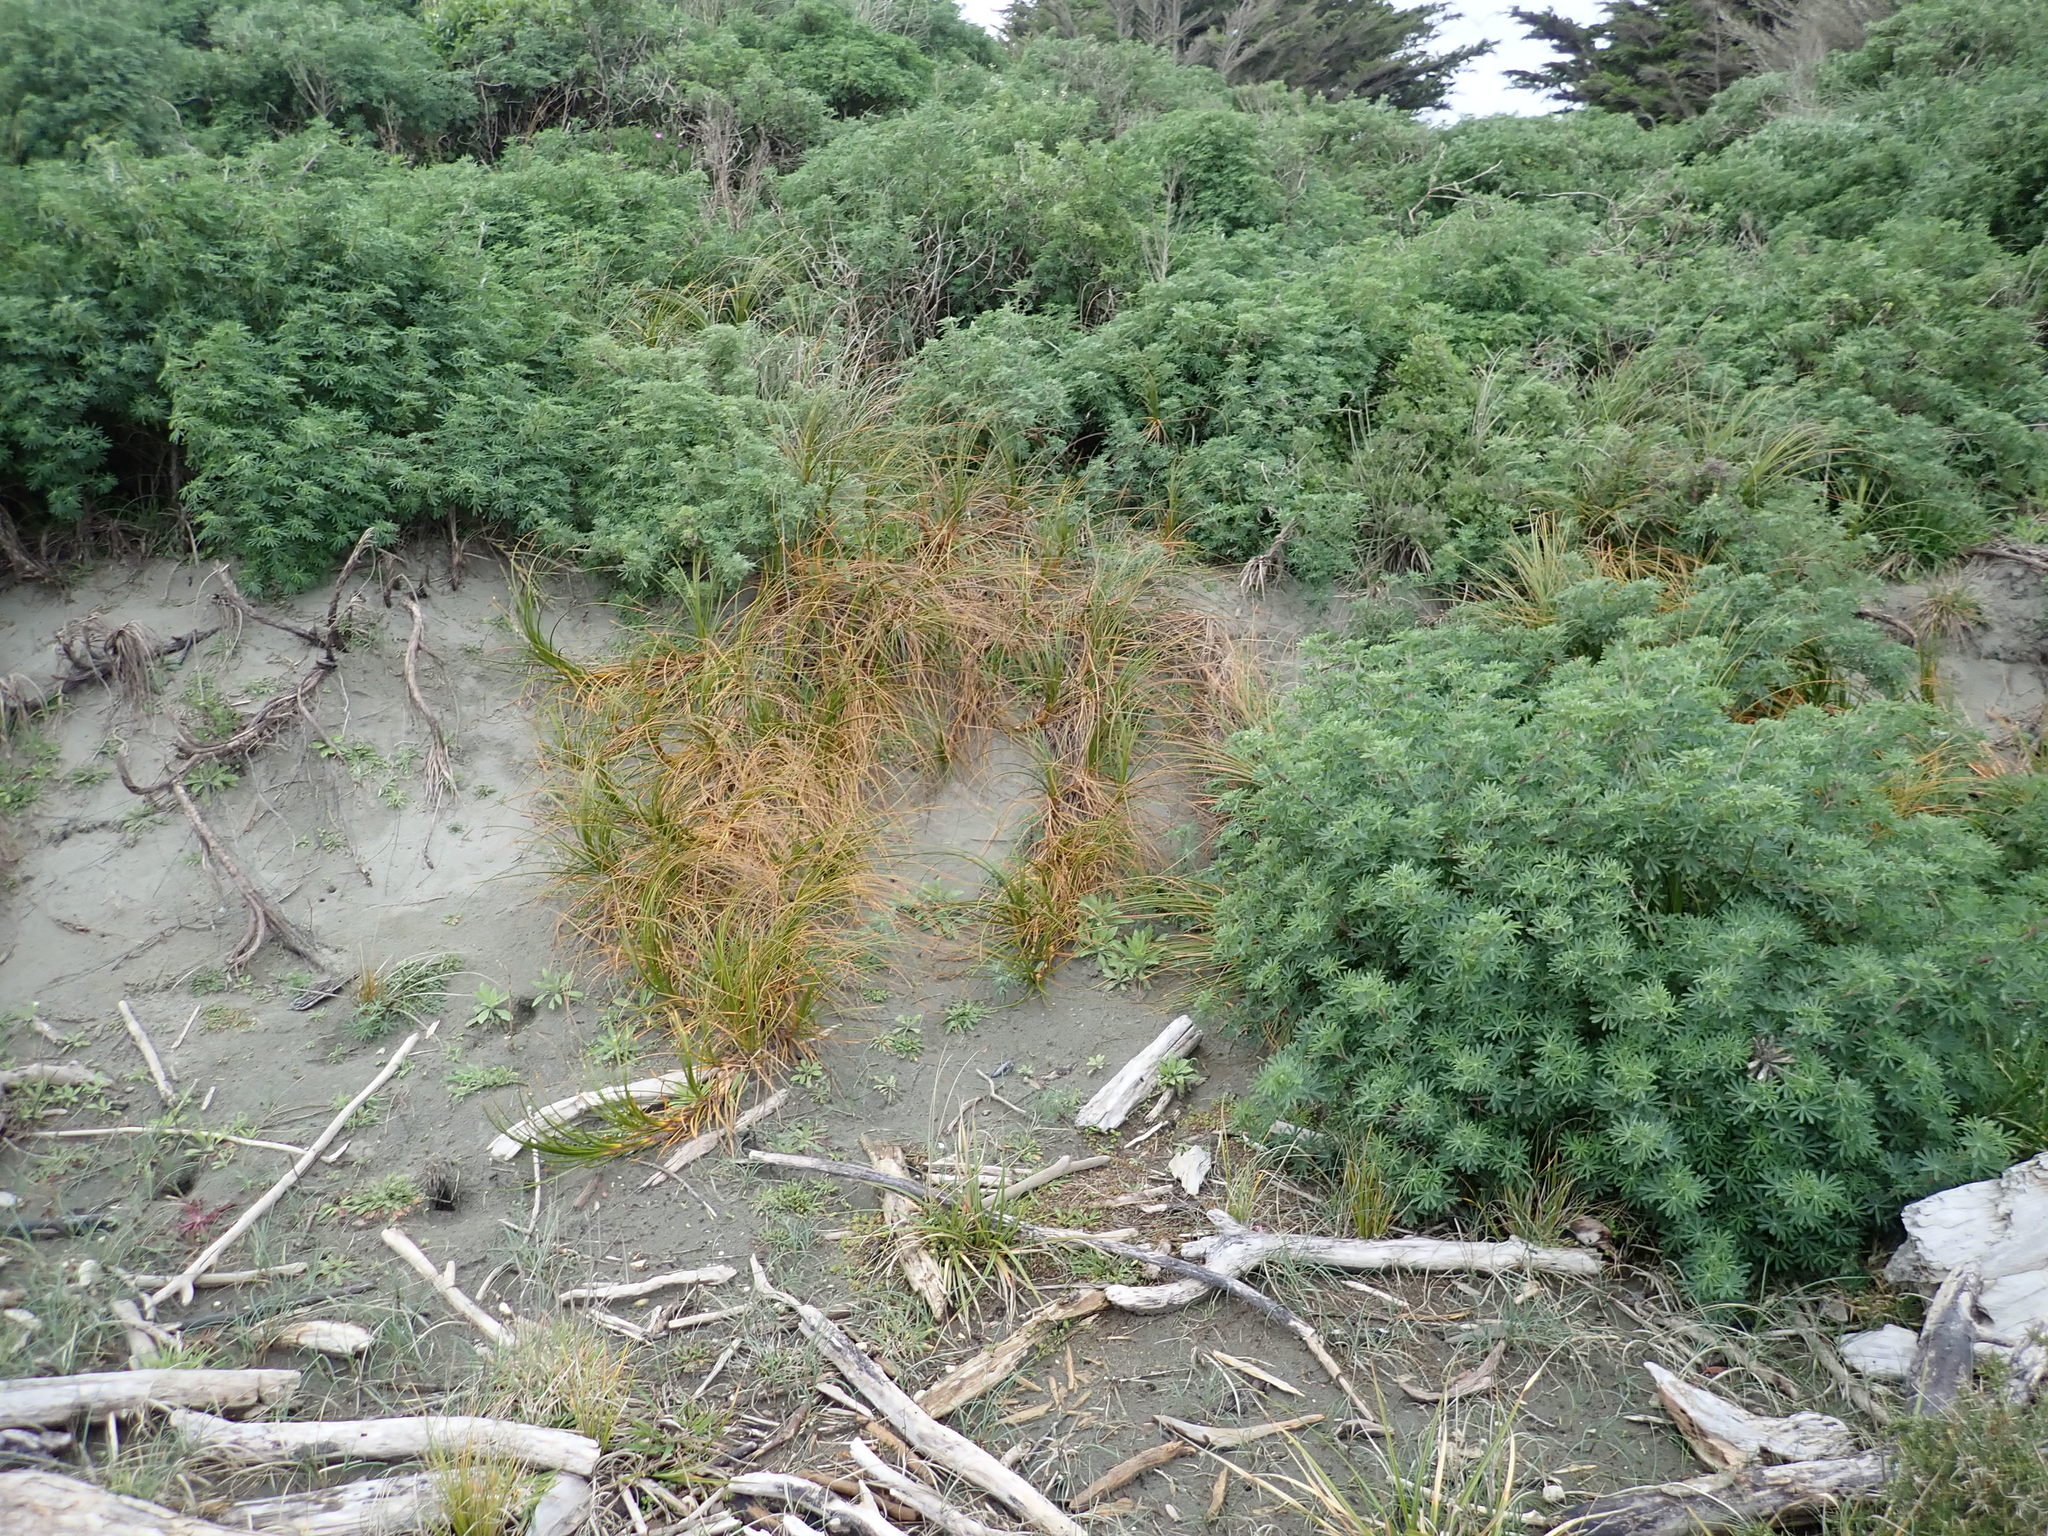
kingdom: Plantae
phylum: Tracheophyta
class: Liliopsida
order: Poales
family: Cyperaceae
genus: Ficinia
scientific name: Ficinia spiralis
